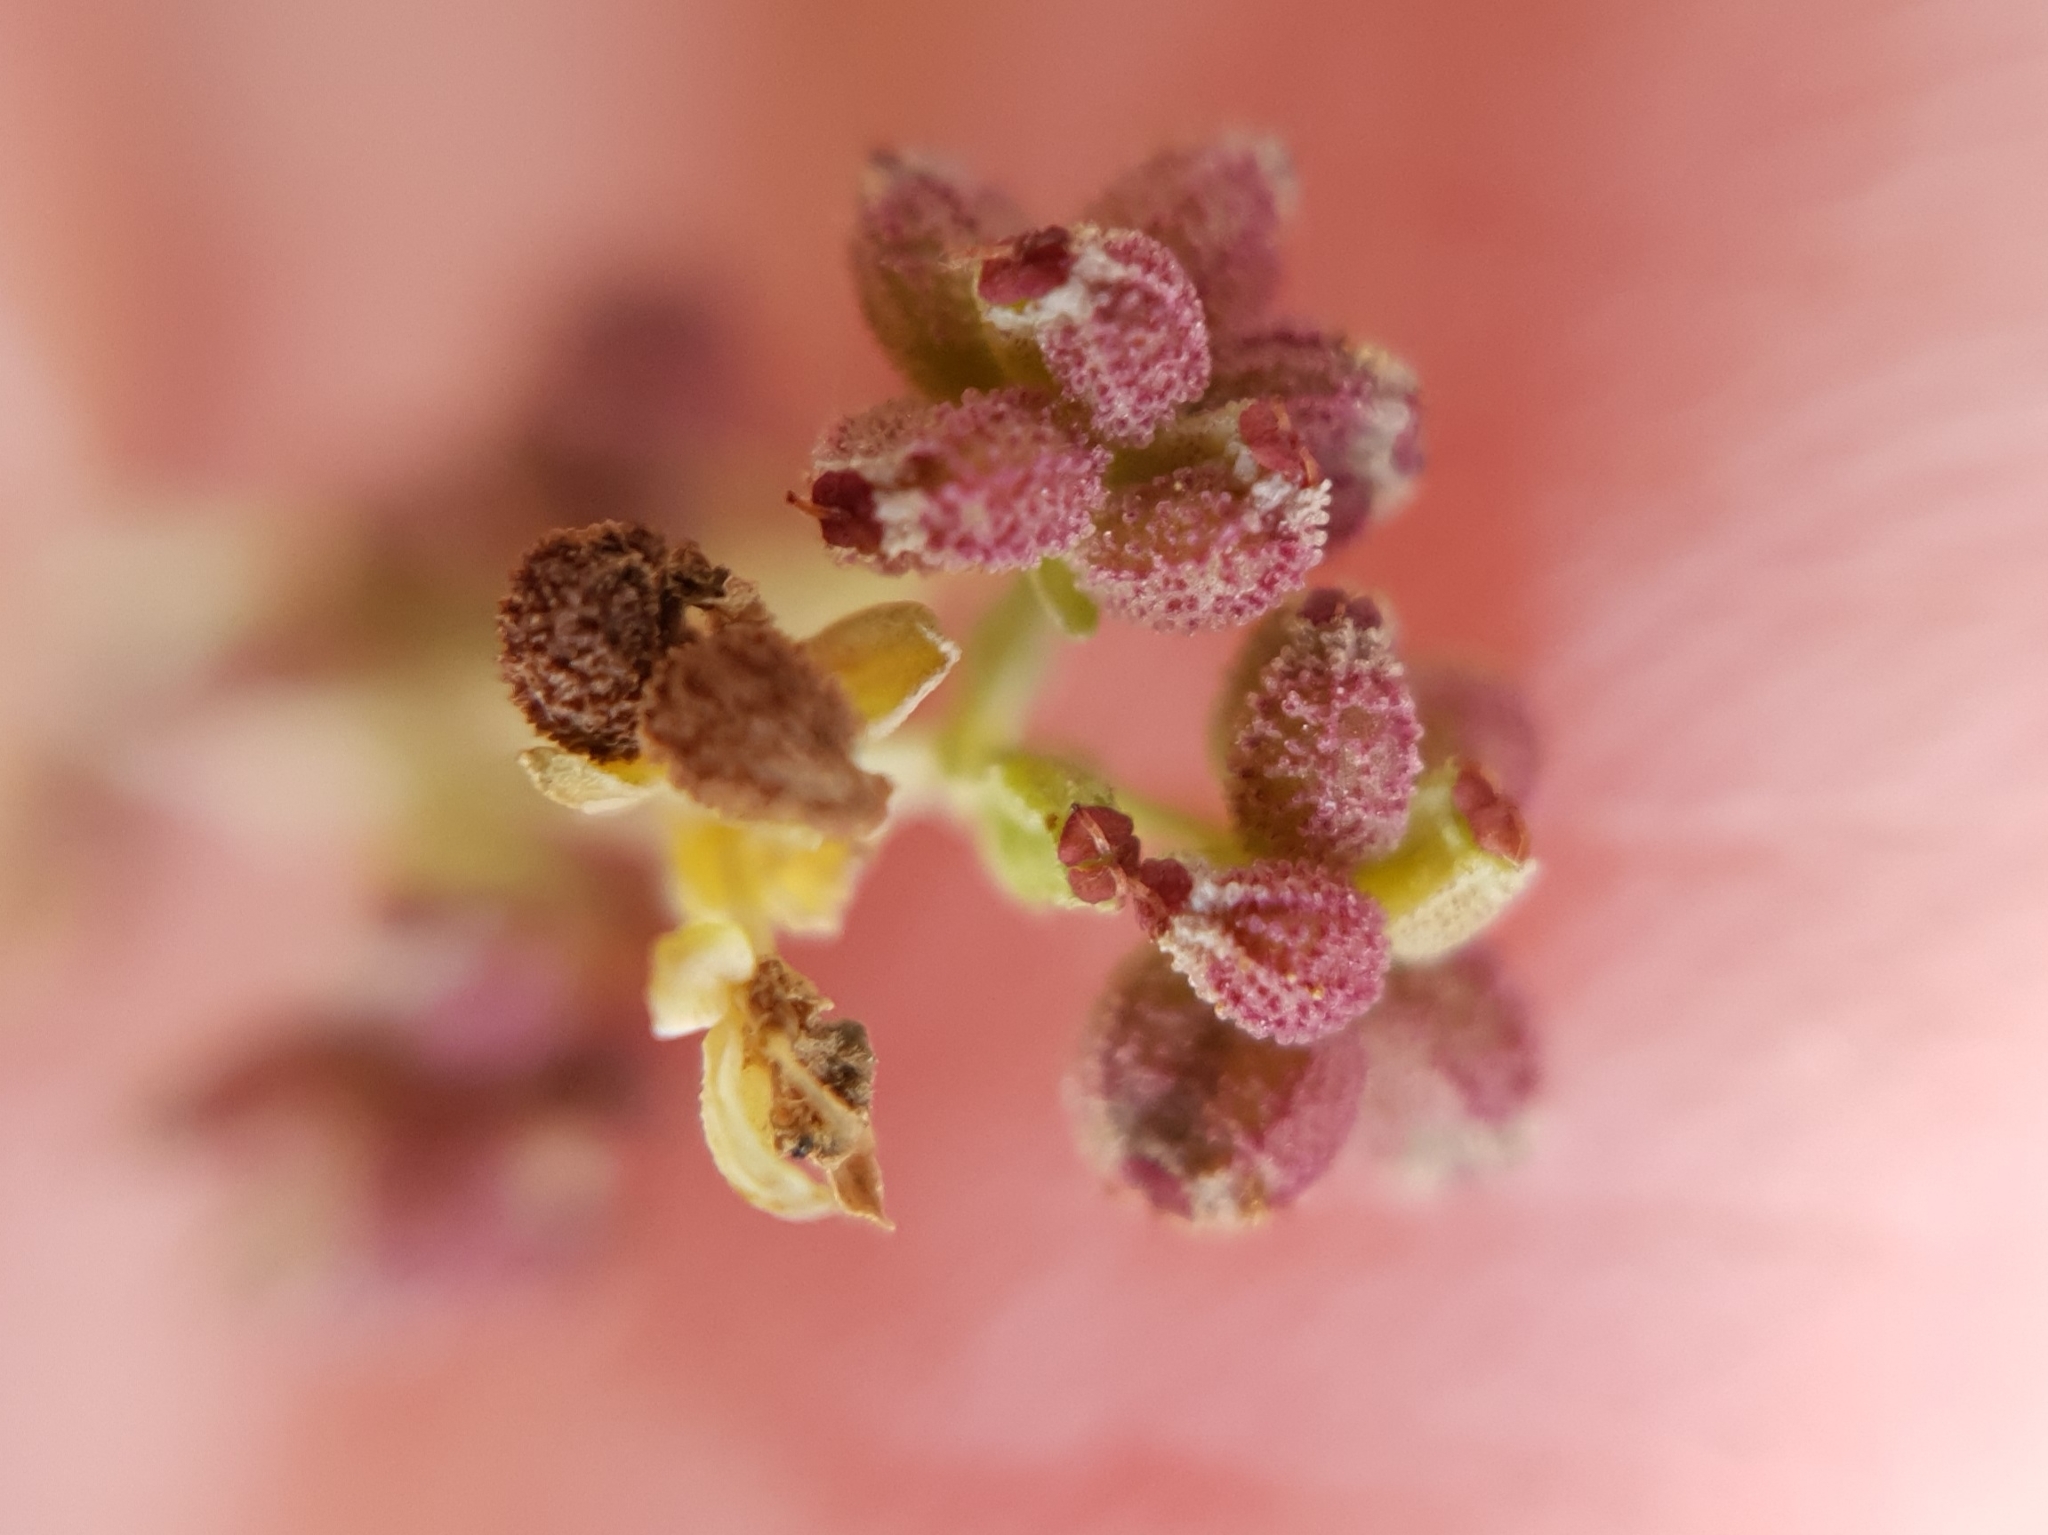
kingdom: Plantae
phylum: Tracheophyta
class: Magnoliopsida
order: Apiales
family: Apiaceae
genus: Bupleurum
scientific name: Bupleurum tenuissimum
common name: Slender hare's-ear
